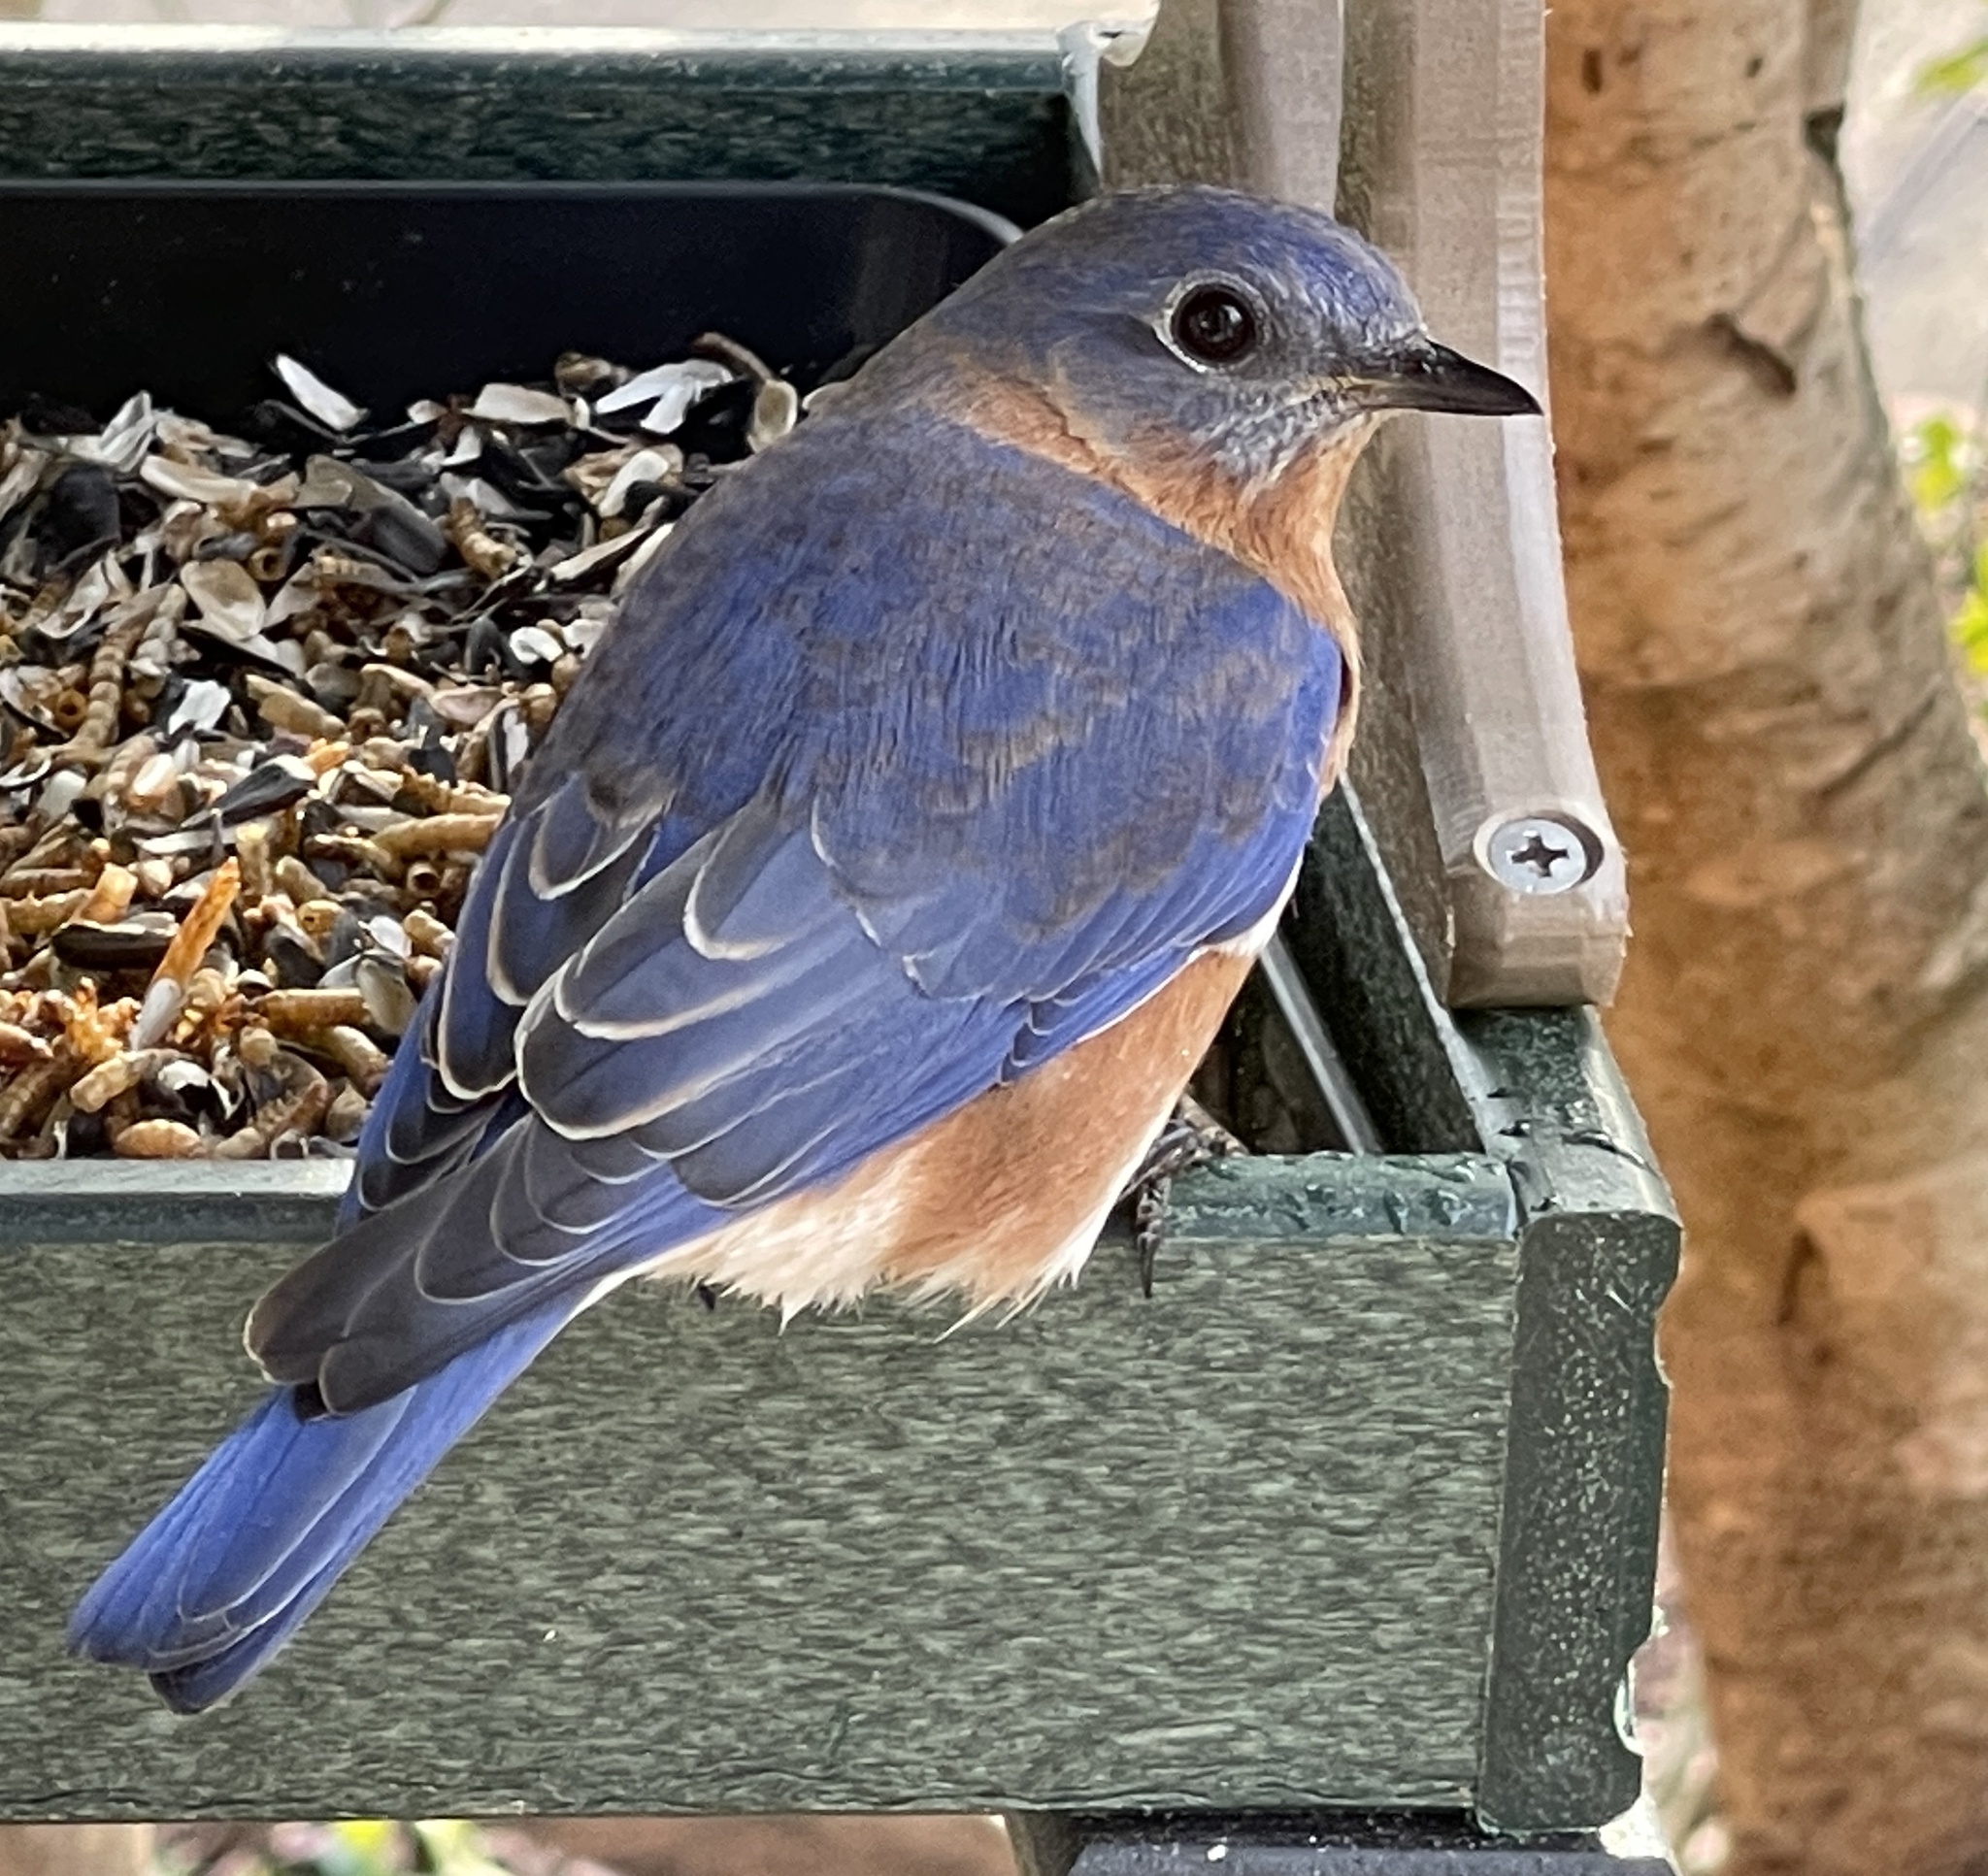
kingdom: Animalia
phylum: Chordata
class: Aves
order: Passeriformes
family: Turdidae
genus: Sialia
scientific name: Sialia sialis
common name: Eastern bluebird
